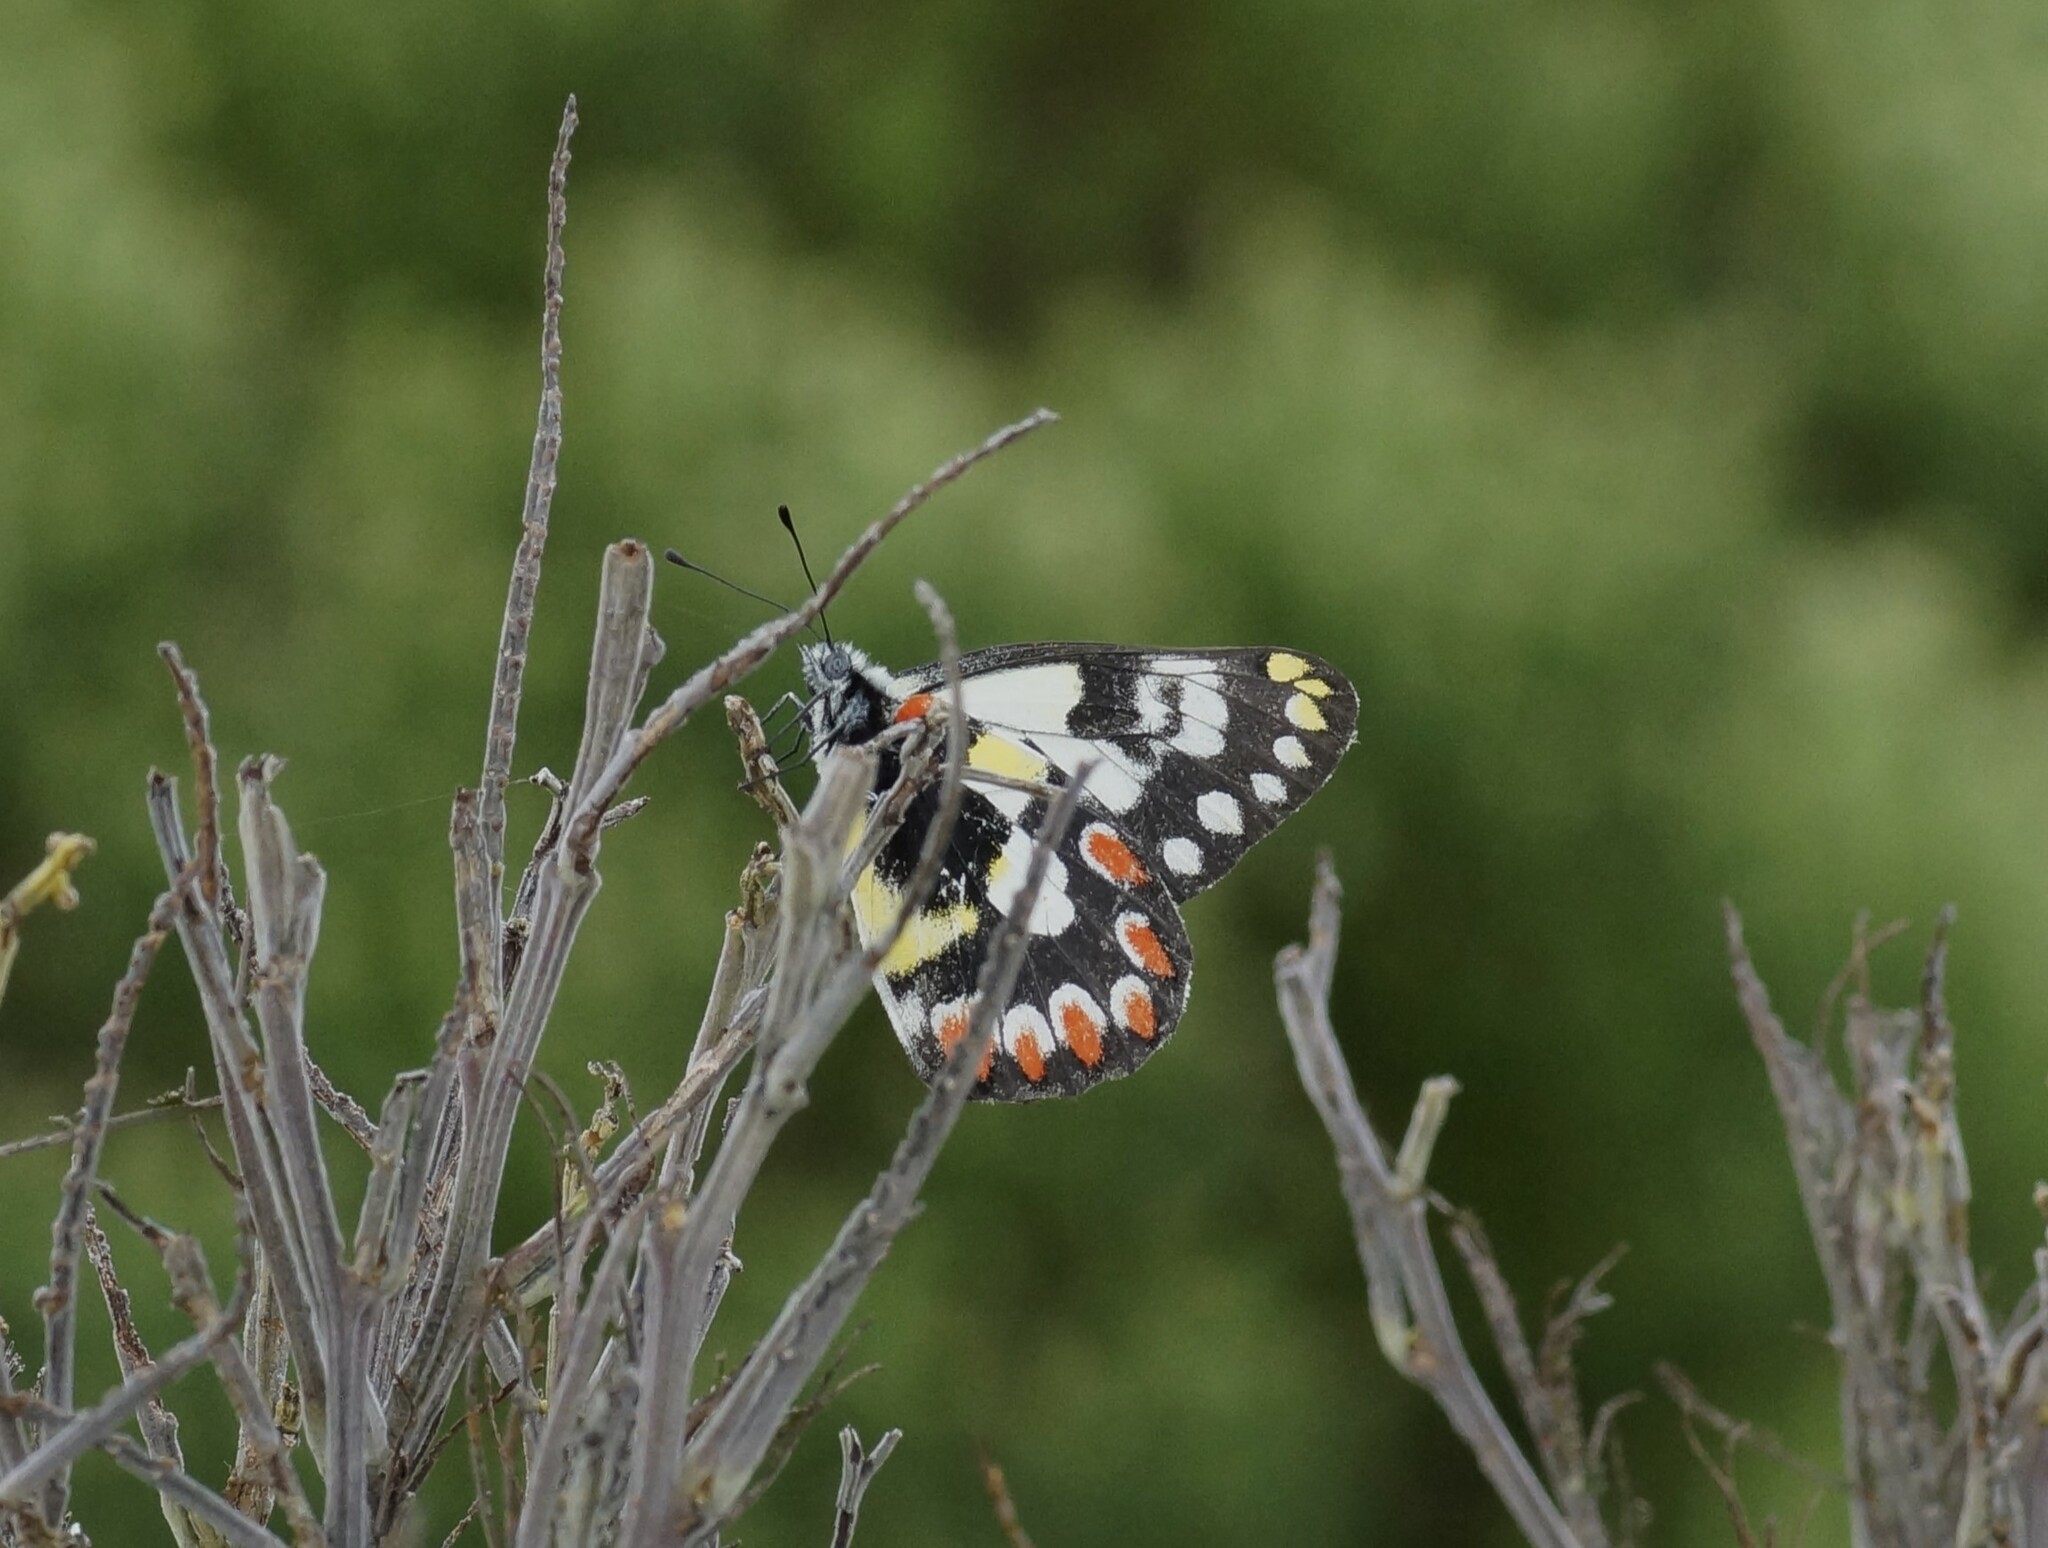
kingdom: Animalia
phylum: Arthropoda
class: Insecta
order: Lepidoptera
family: Pieridae
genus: Delias
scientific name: Delias aganippe
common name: Red-spotted jezebel
